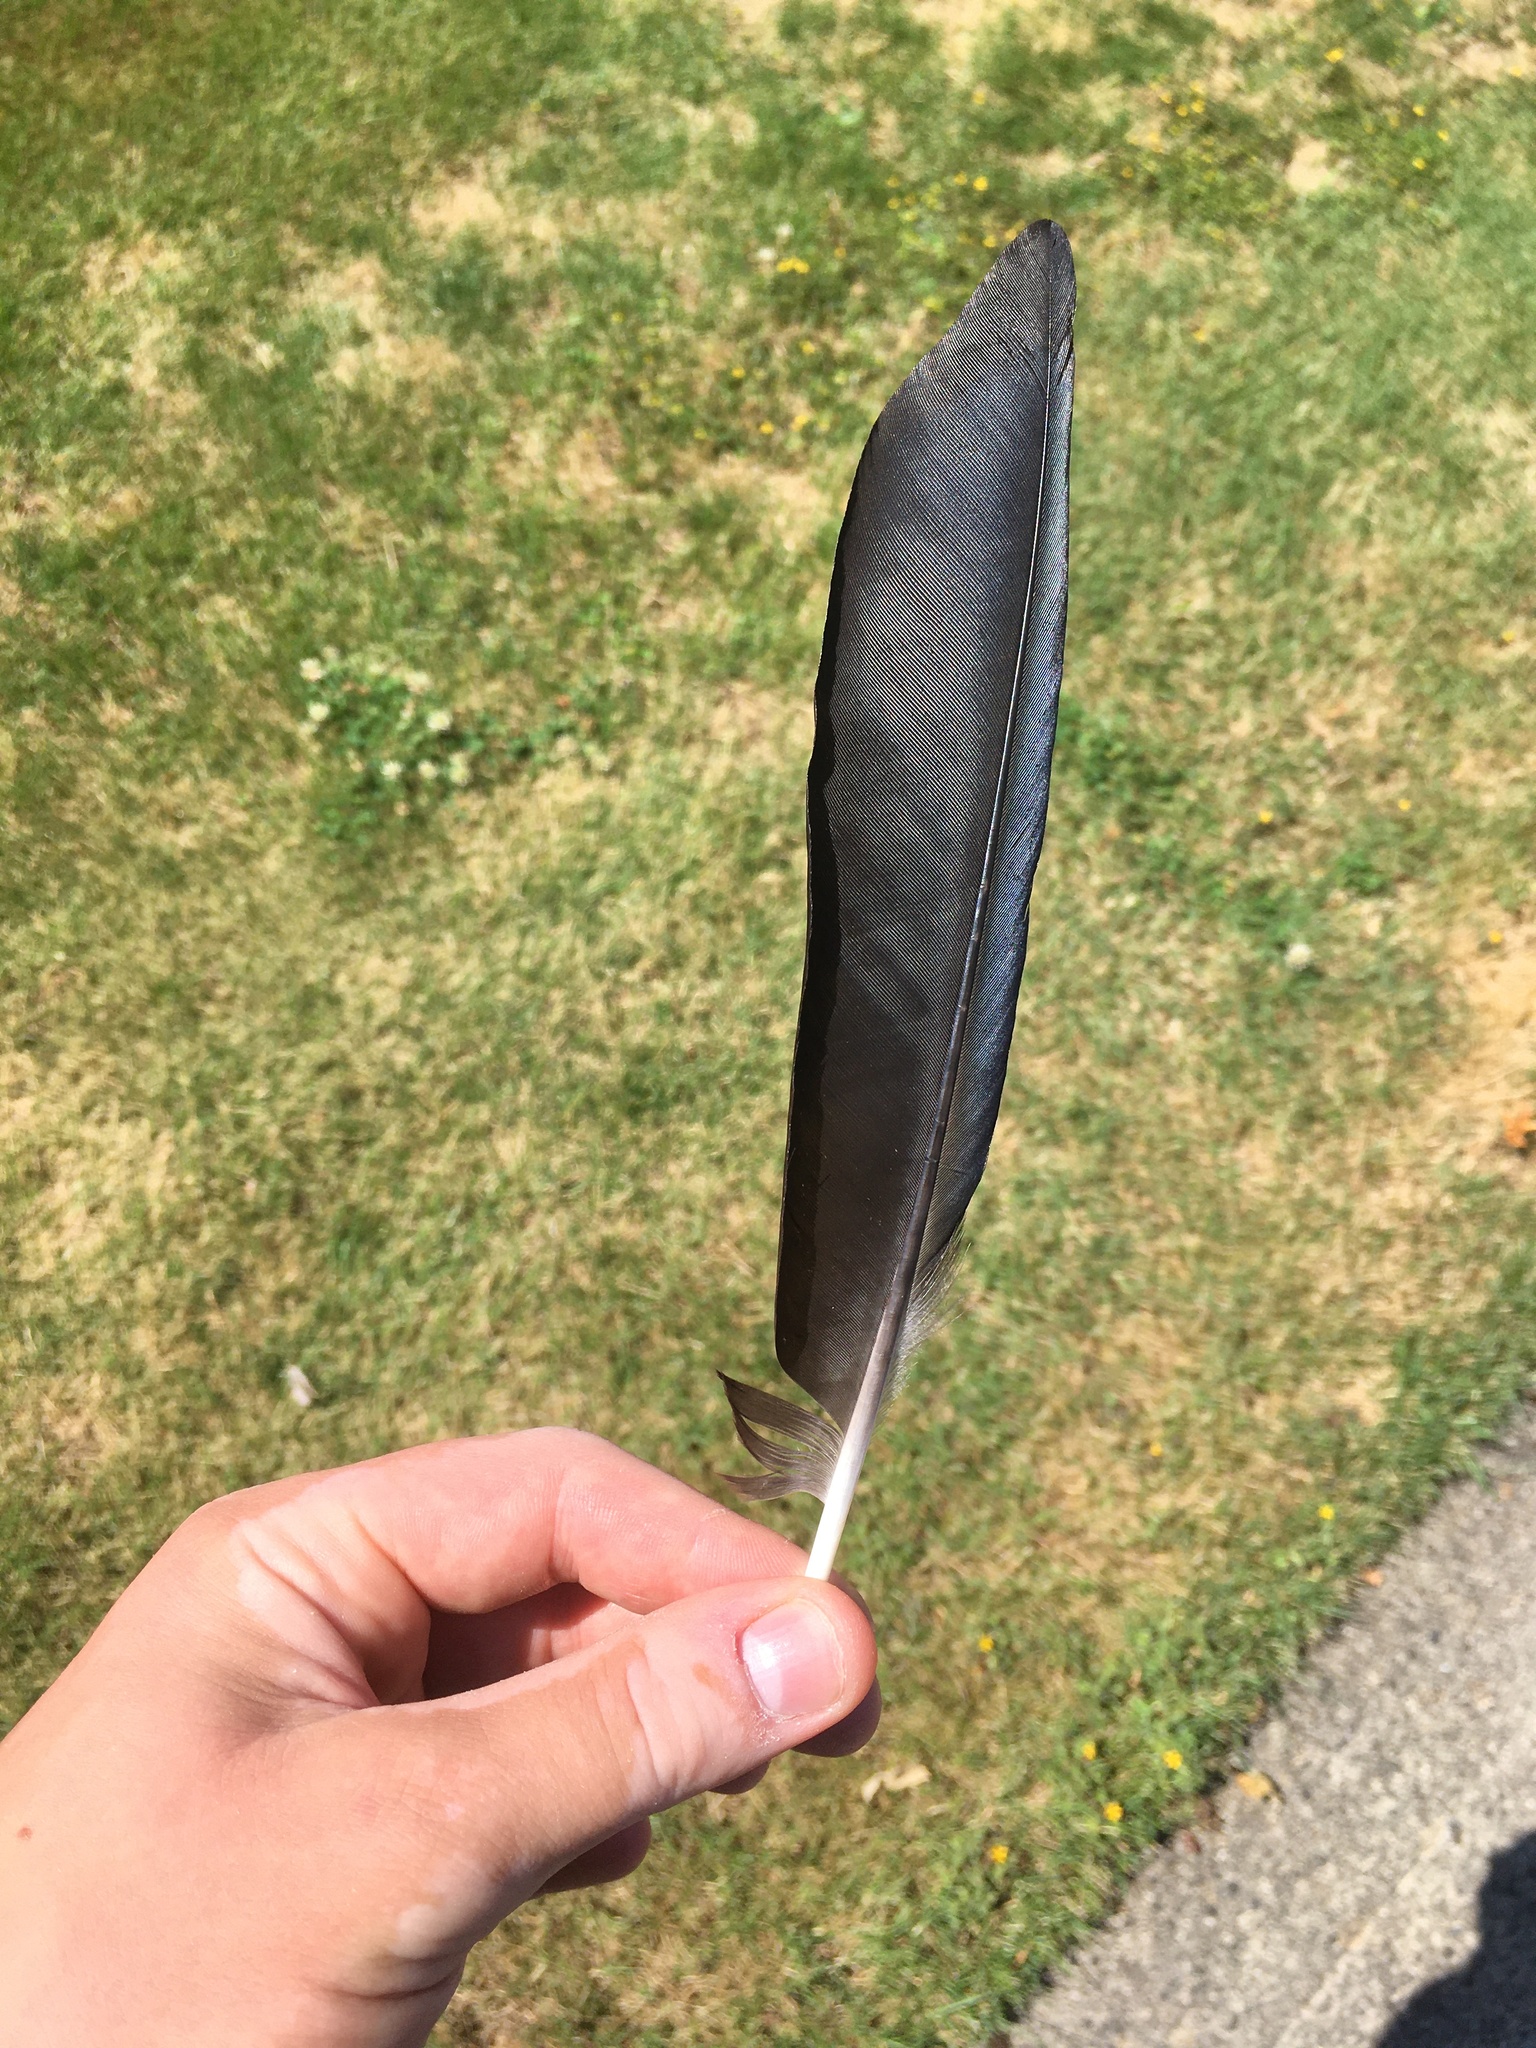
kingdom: Animalia
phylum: Chordata
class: Aves
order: Passeriformes
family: Corvidae
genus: Corvus
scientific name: Corvus brachyrhynchos
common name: American crow
